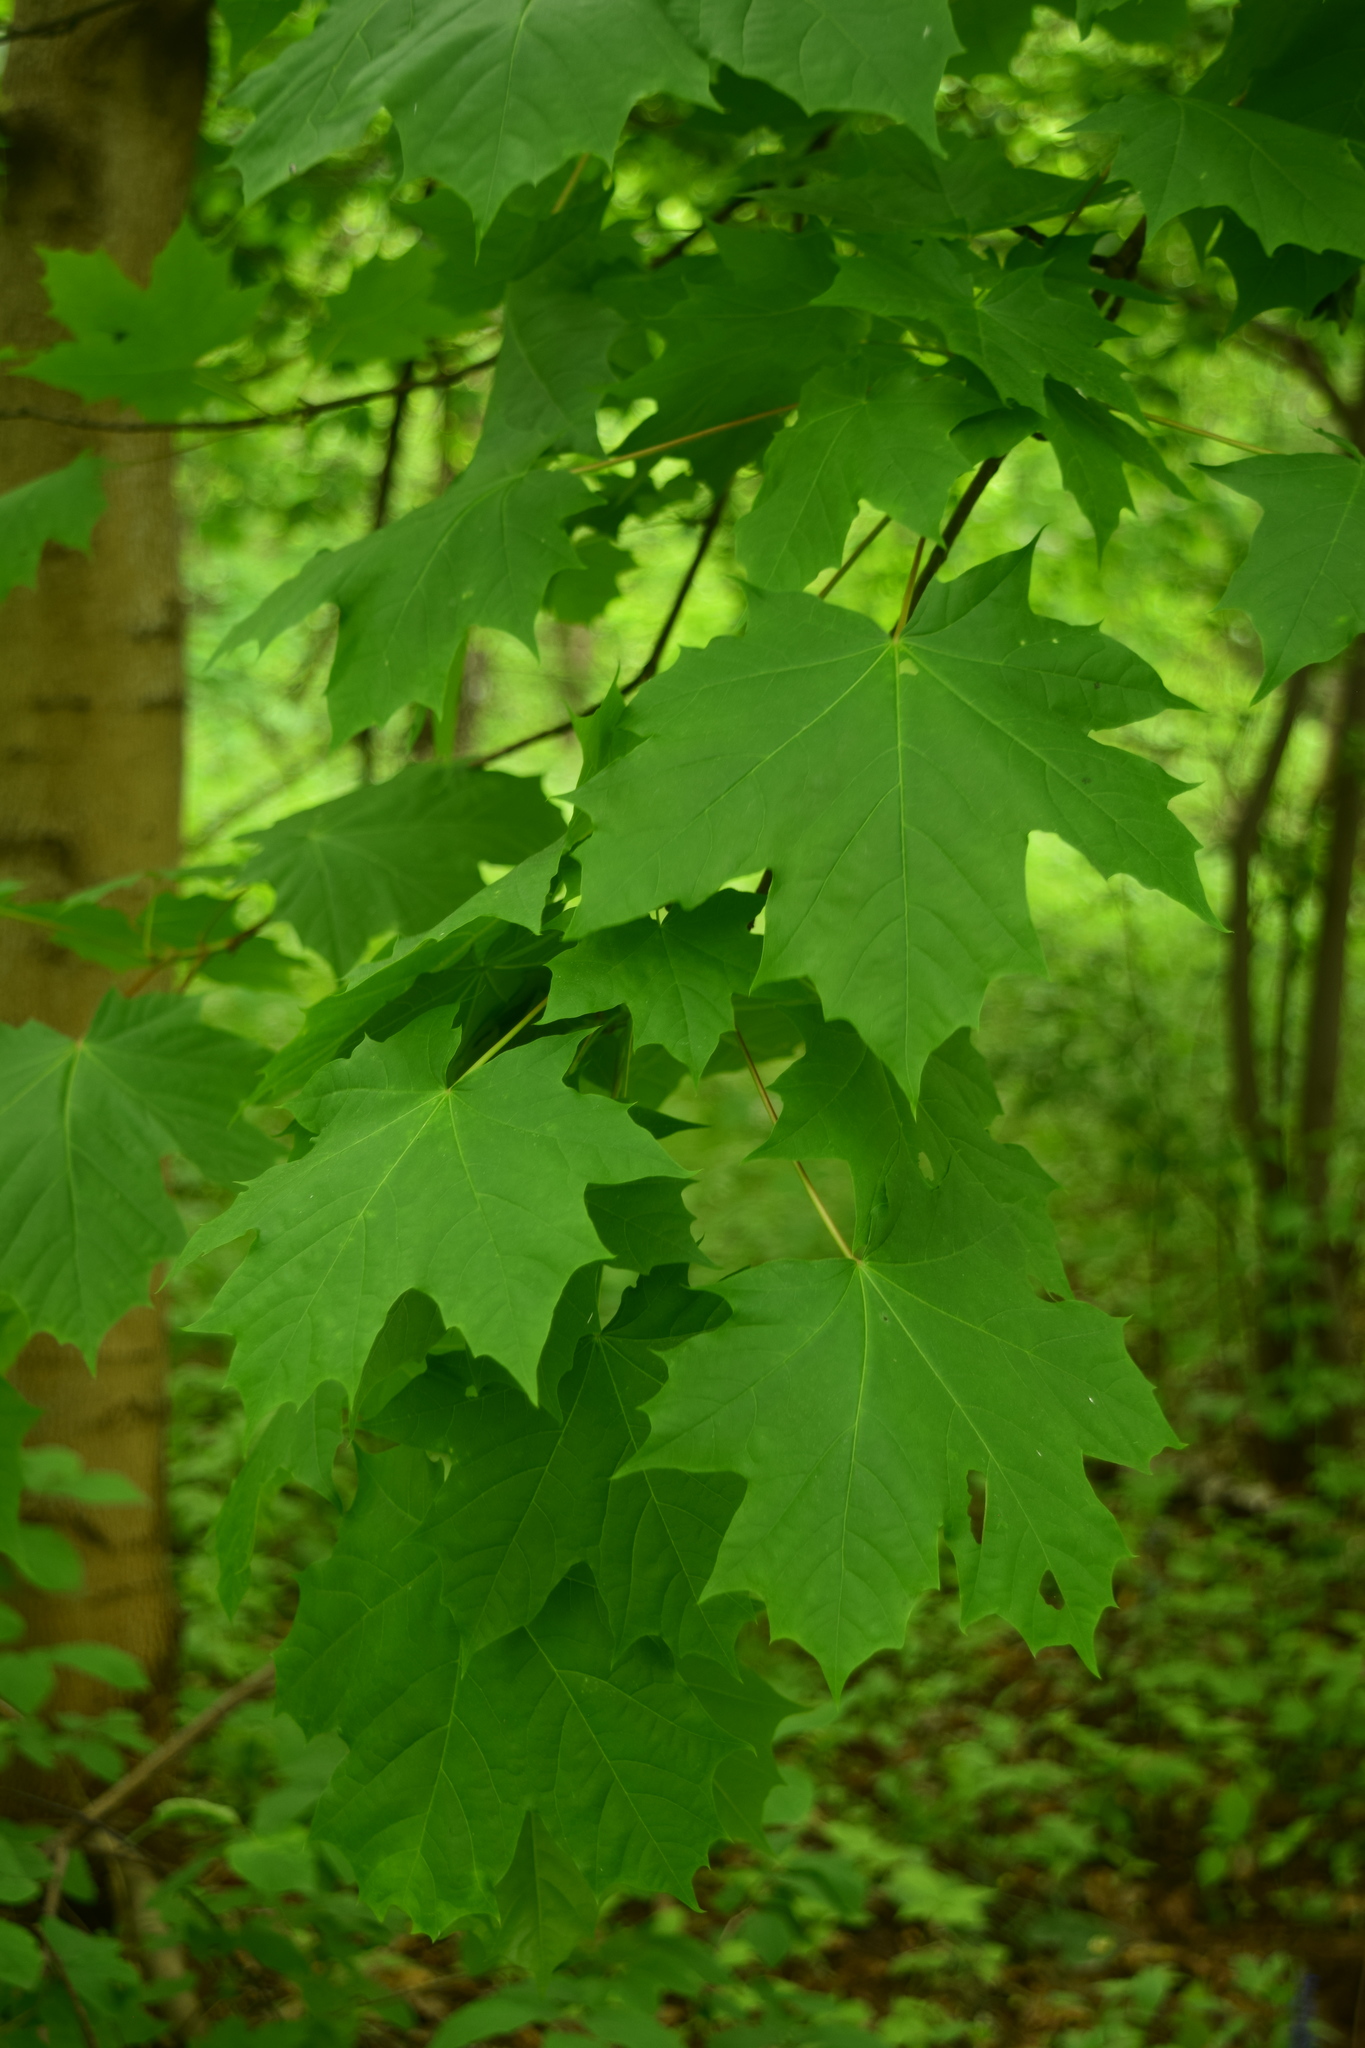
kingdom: Plantae
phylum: Tracheophyta
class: Magnoliopsida
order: Sapindales
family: Sapindaceae
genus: Acer
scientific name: Acer platanoides
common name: Norway maple
